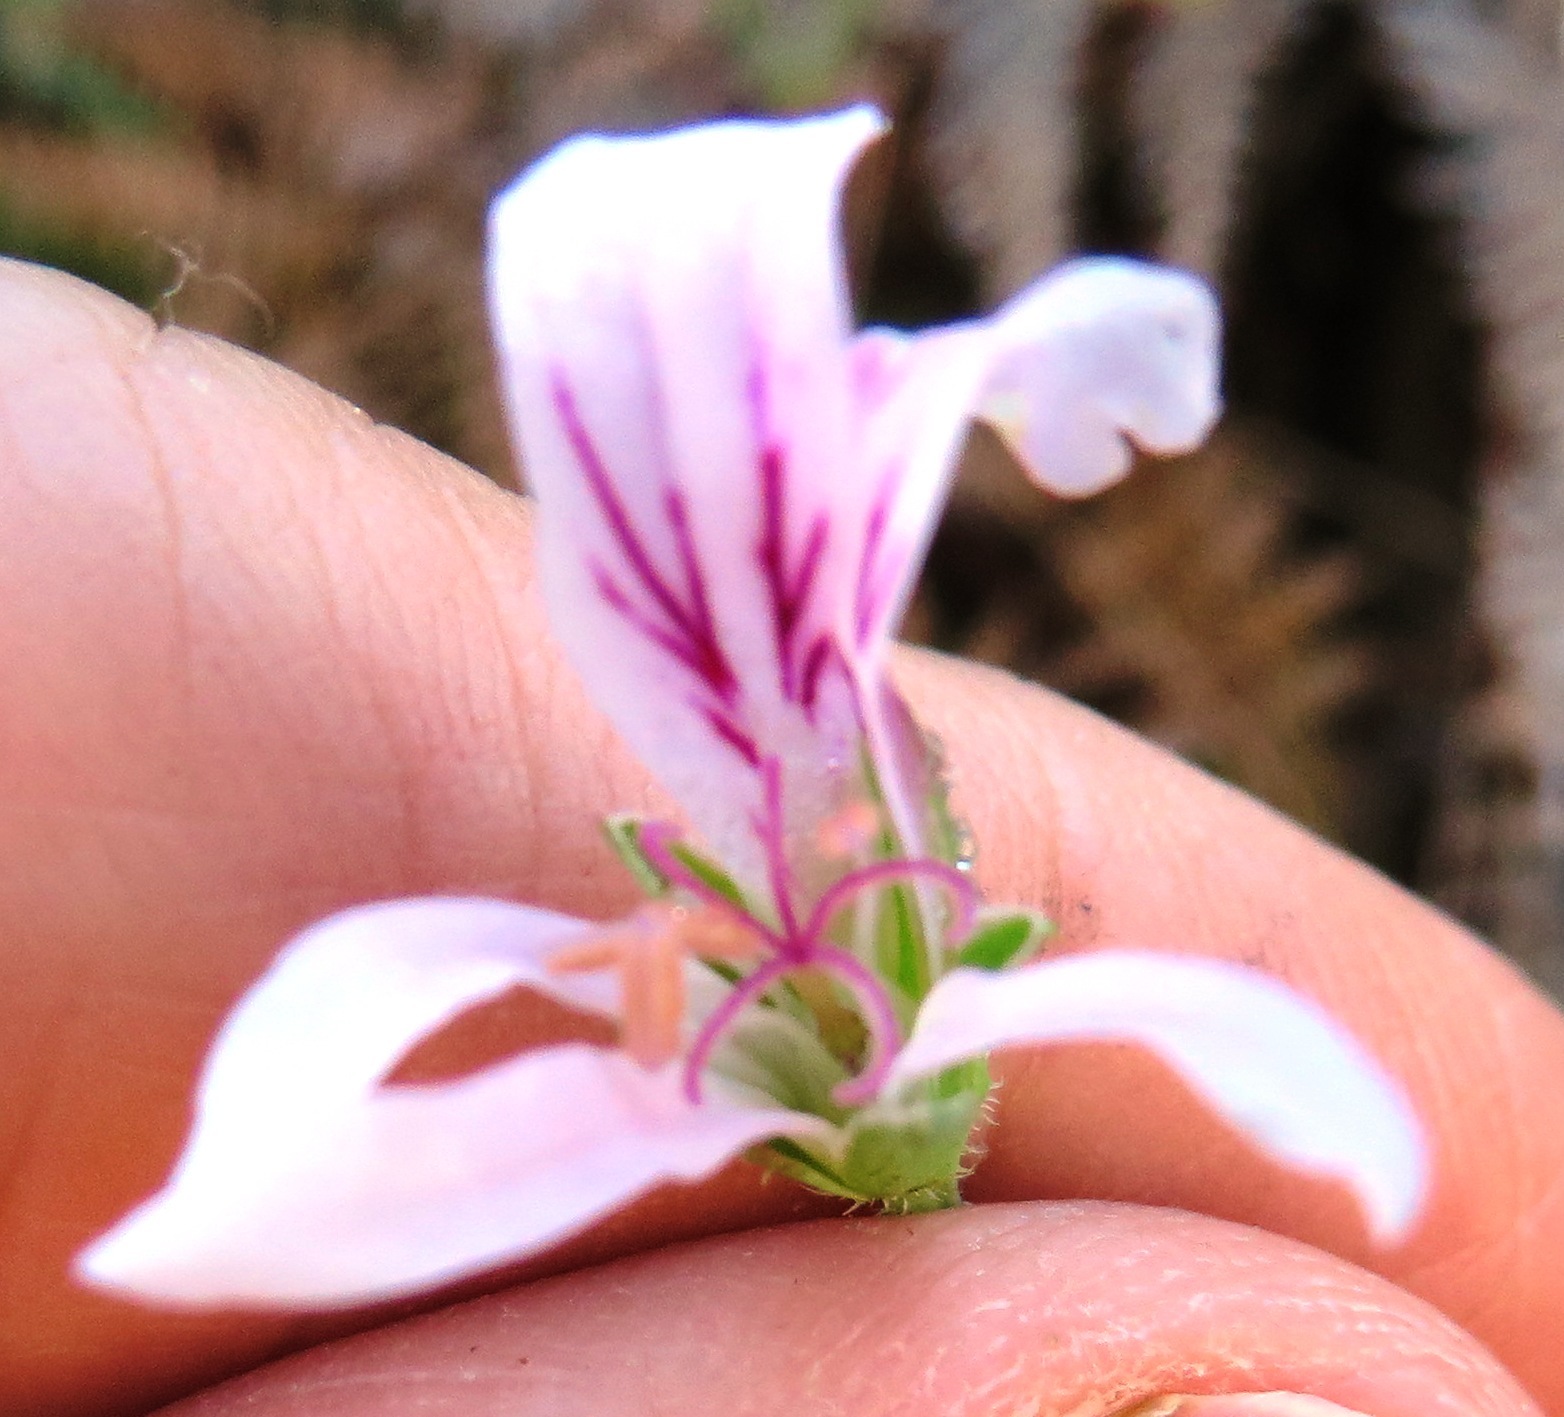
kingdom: Plantae
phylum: Tracheophyta
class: Magnoliopsida
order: Geraniales
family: Geraniaceae
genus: Pelargonium
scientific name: Pelargonium tabulare
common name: Table mountain pelargonium
